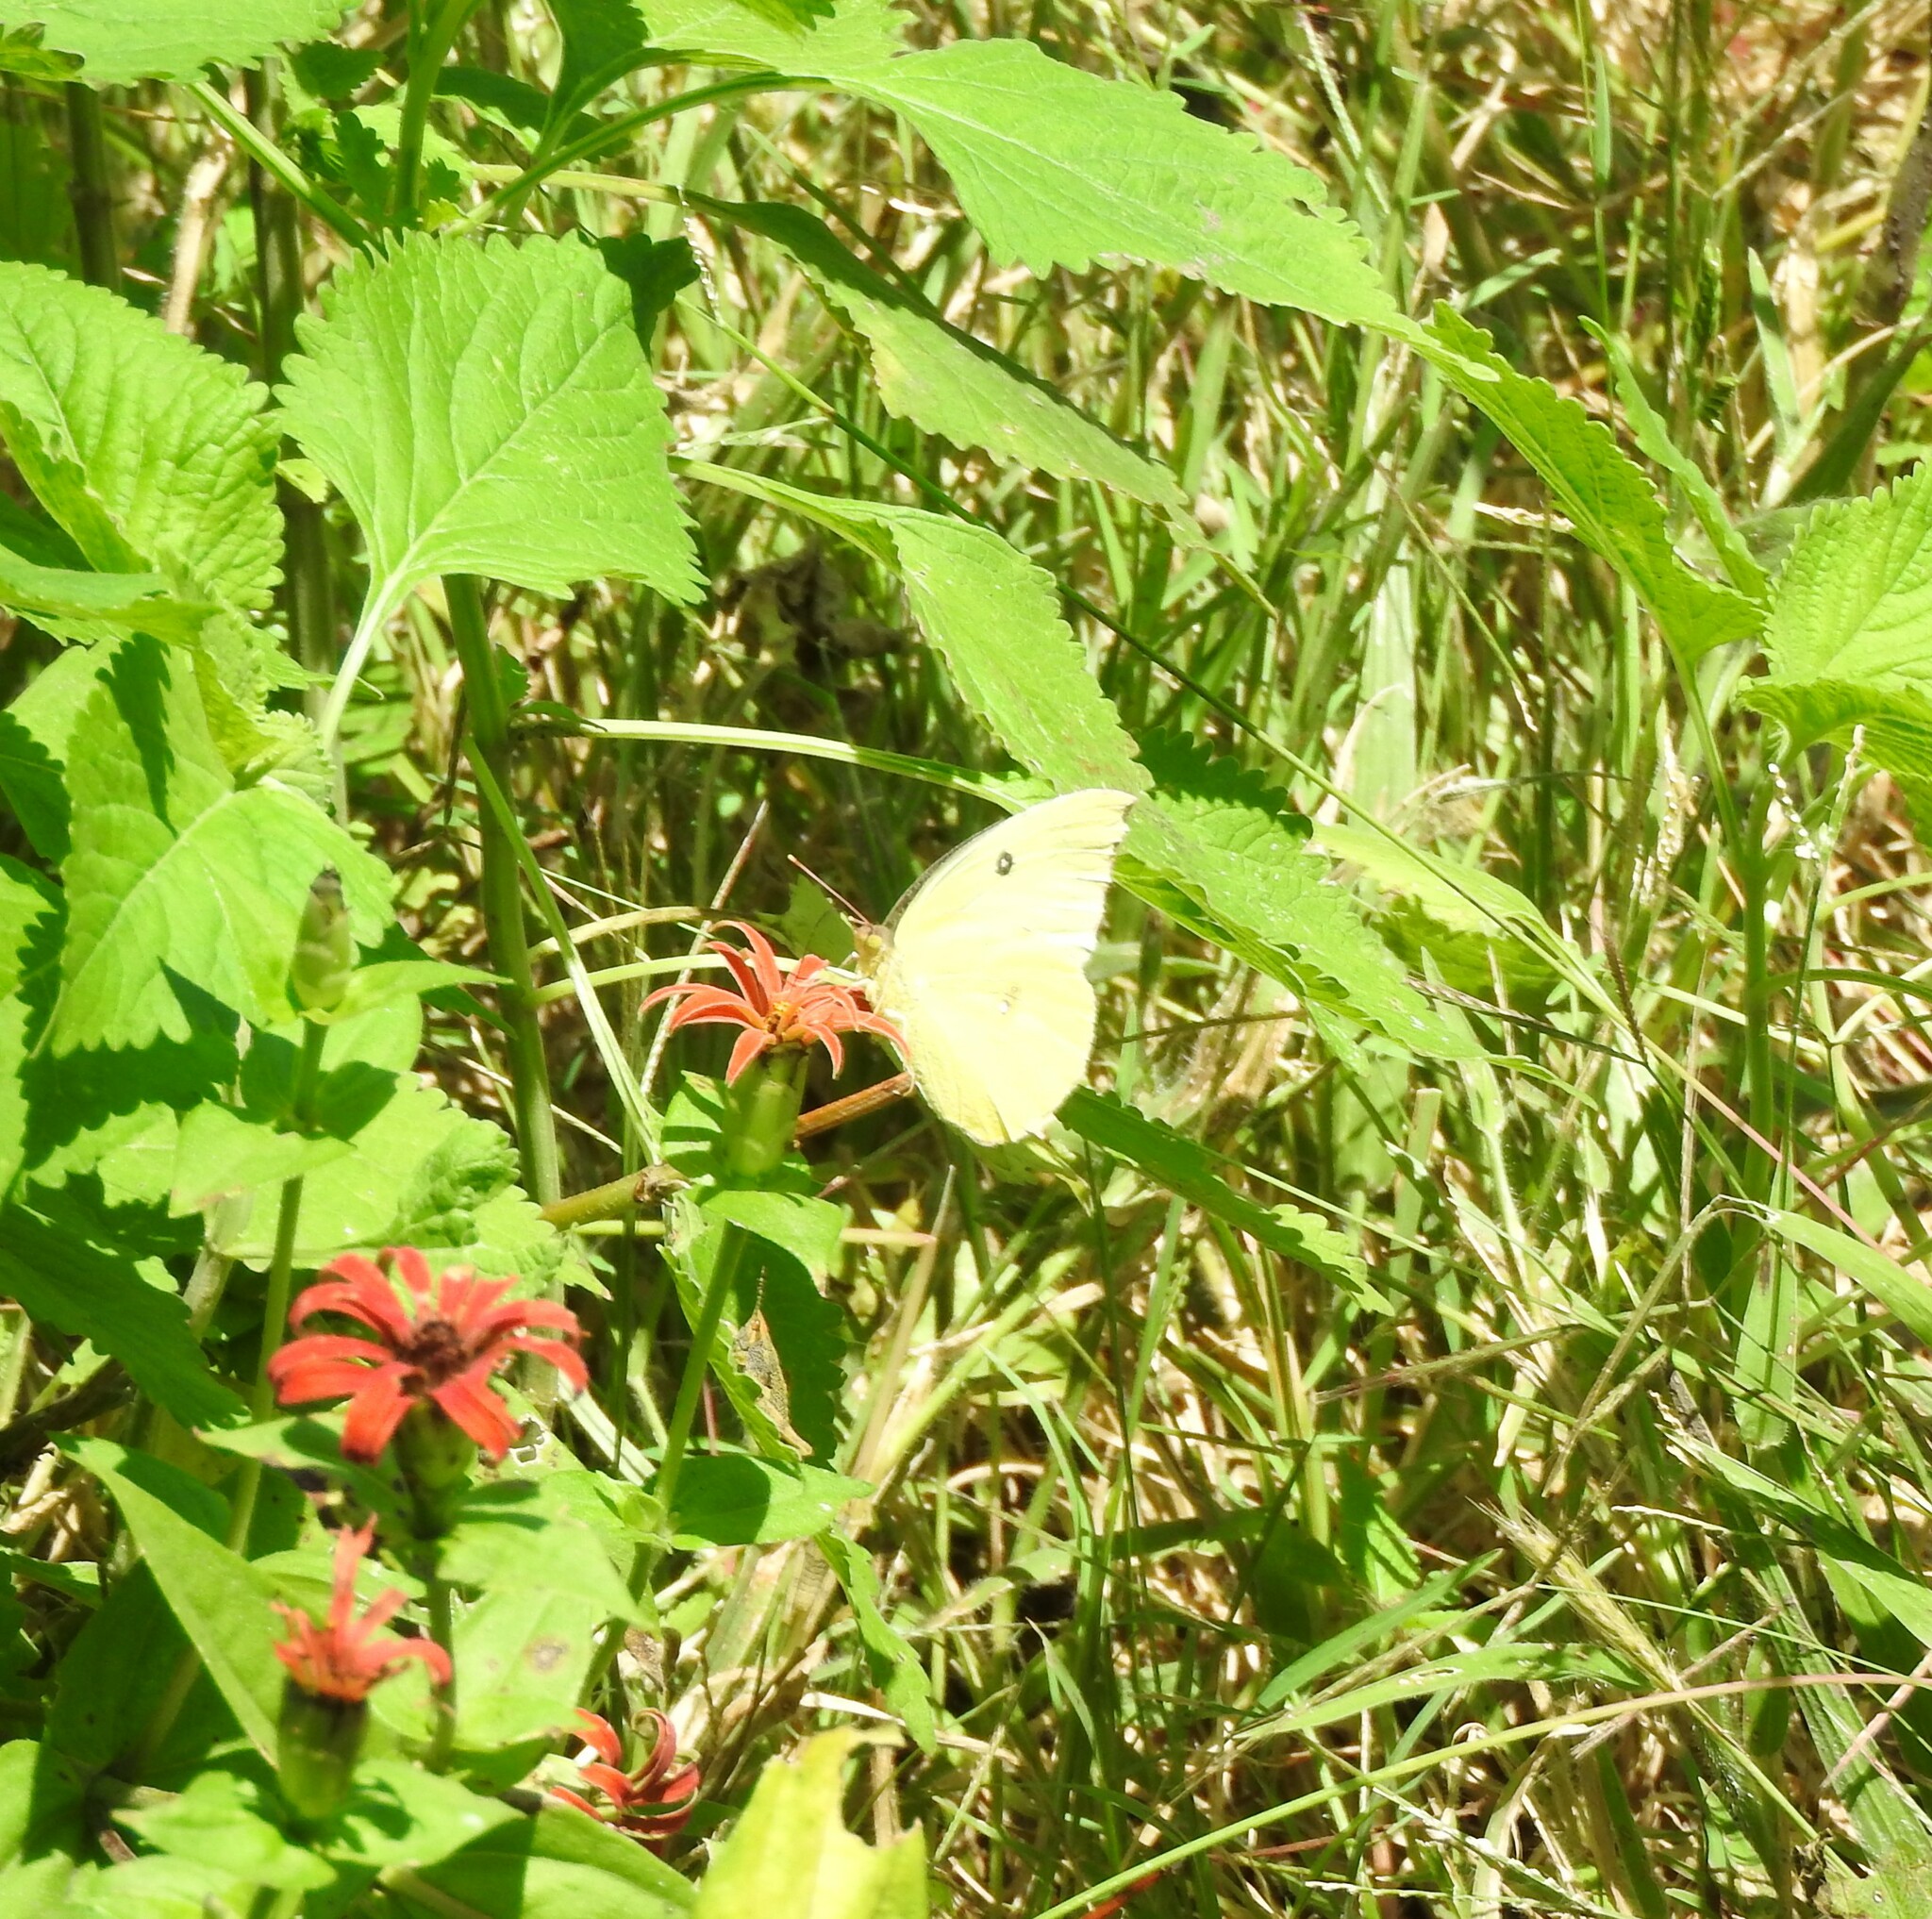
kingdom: Animalia
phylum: Arthropoda
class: Insecta
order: Lepidoptera
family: Pieridae
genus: Zerene
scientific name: Zerene cesonia
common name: Southern dogface
